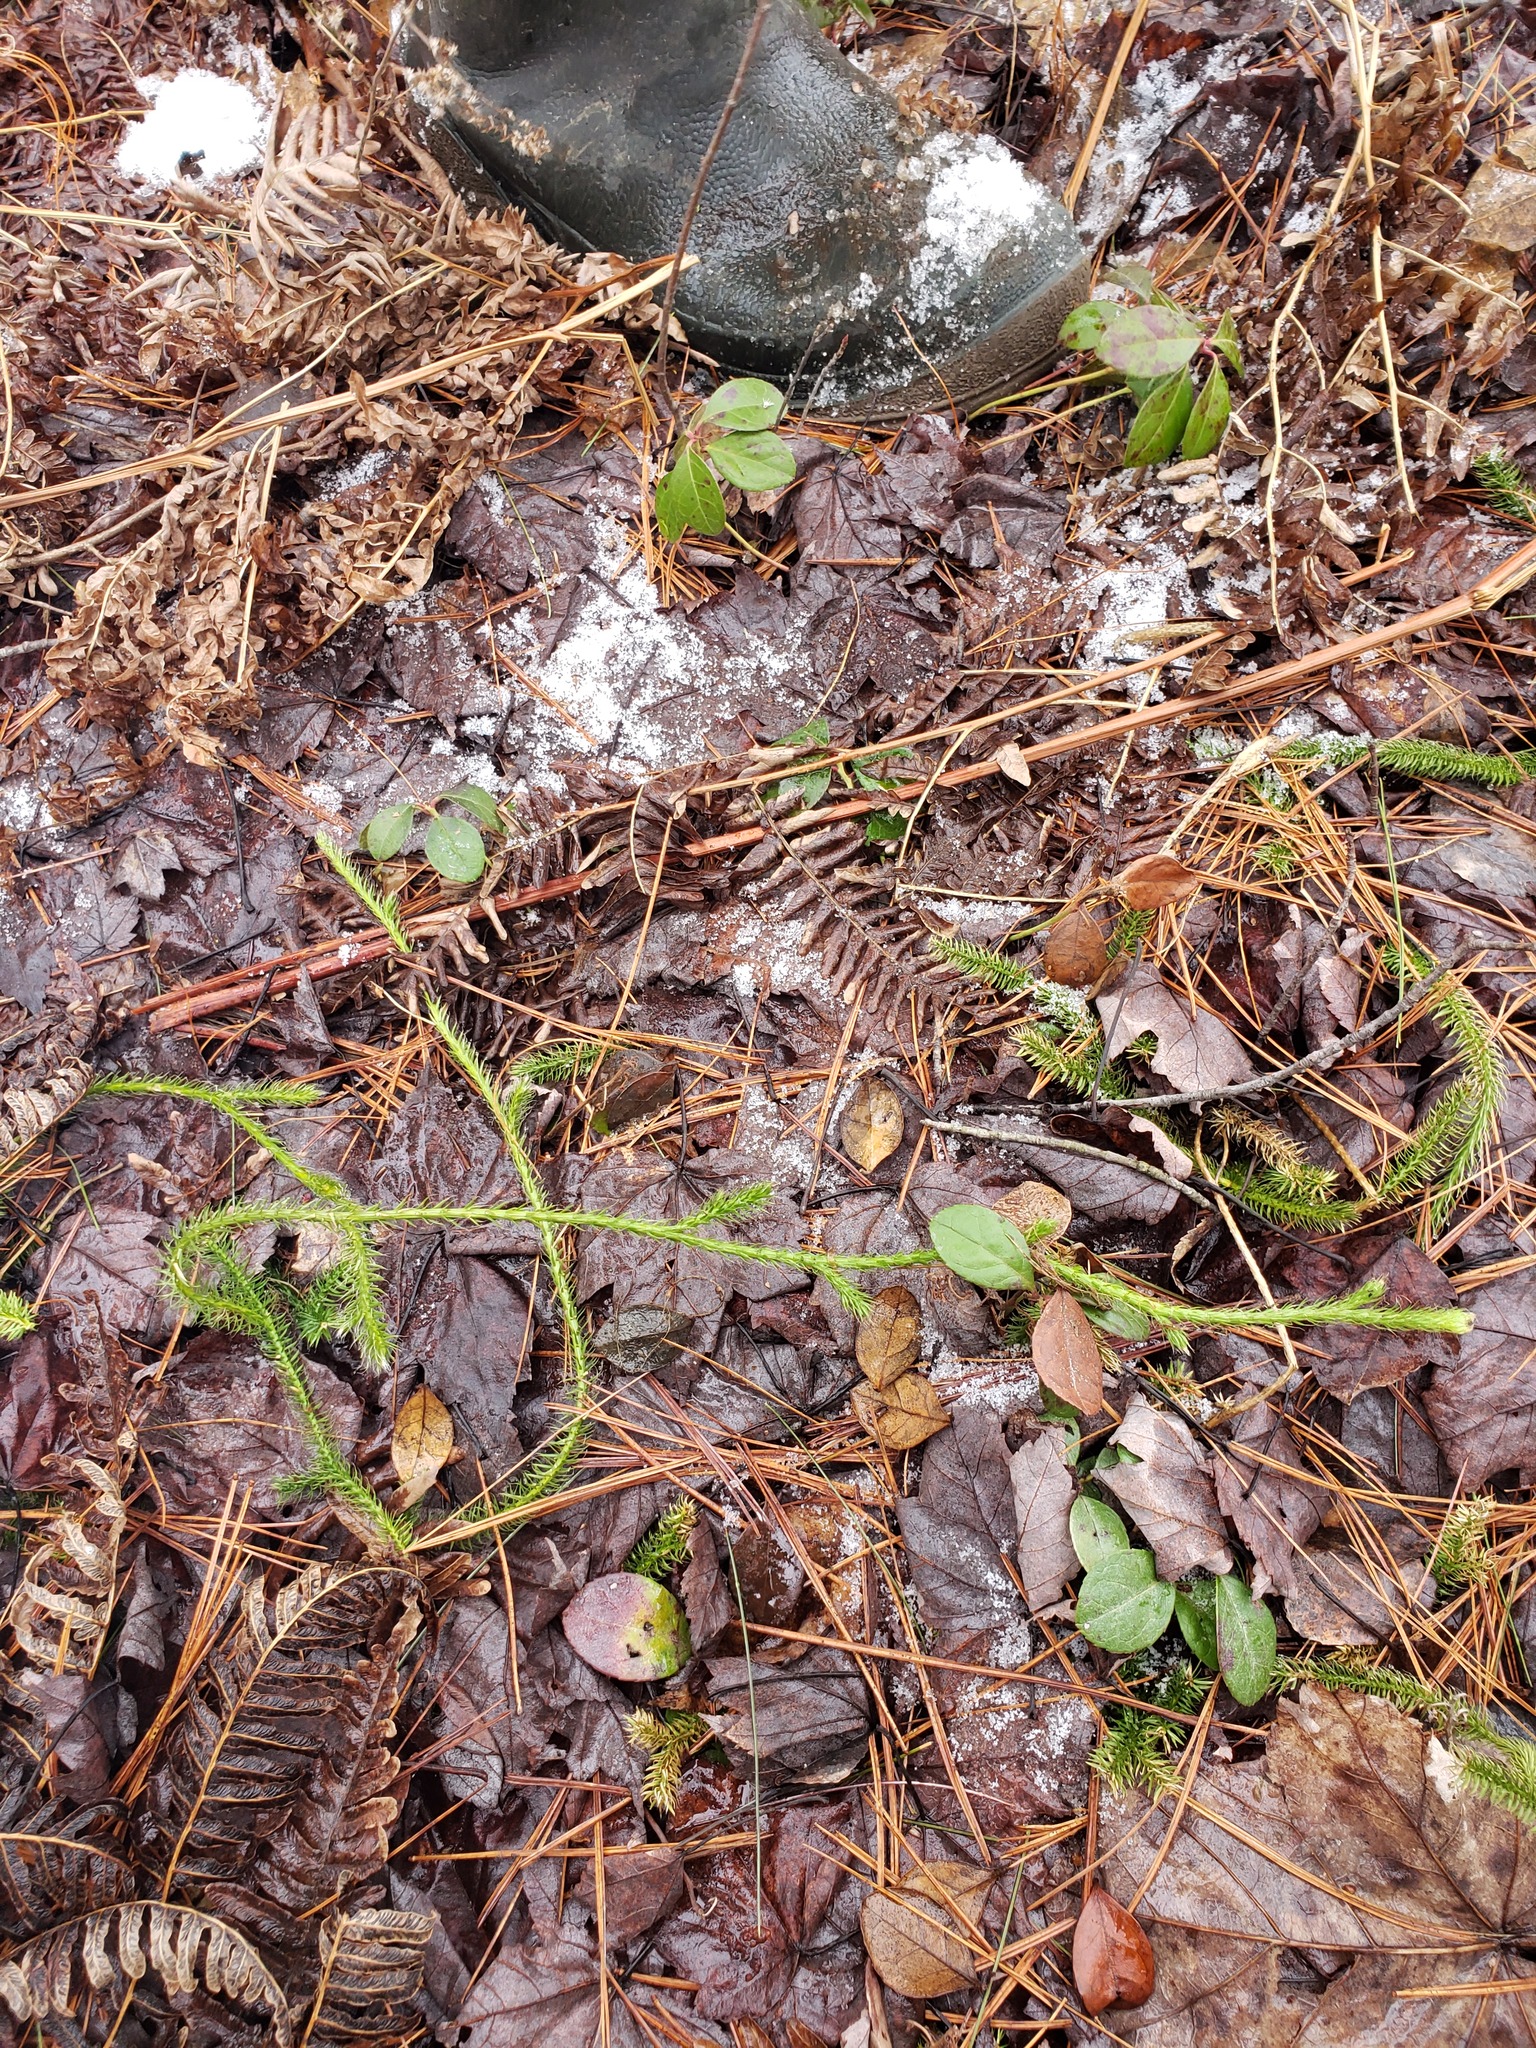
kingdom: Plantae
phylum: Tracheophyta
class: Lycopodiopsida
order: Lycopodiales
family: Lycopodiaceae
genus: Lycopodium
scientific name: Lycopodium clavatum
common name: Stag's-horn clubmoss
